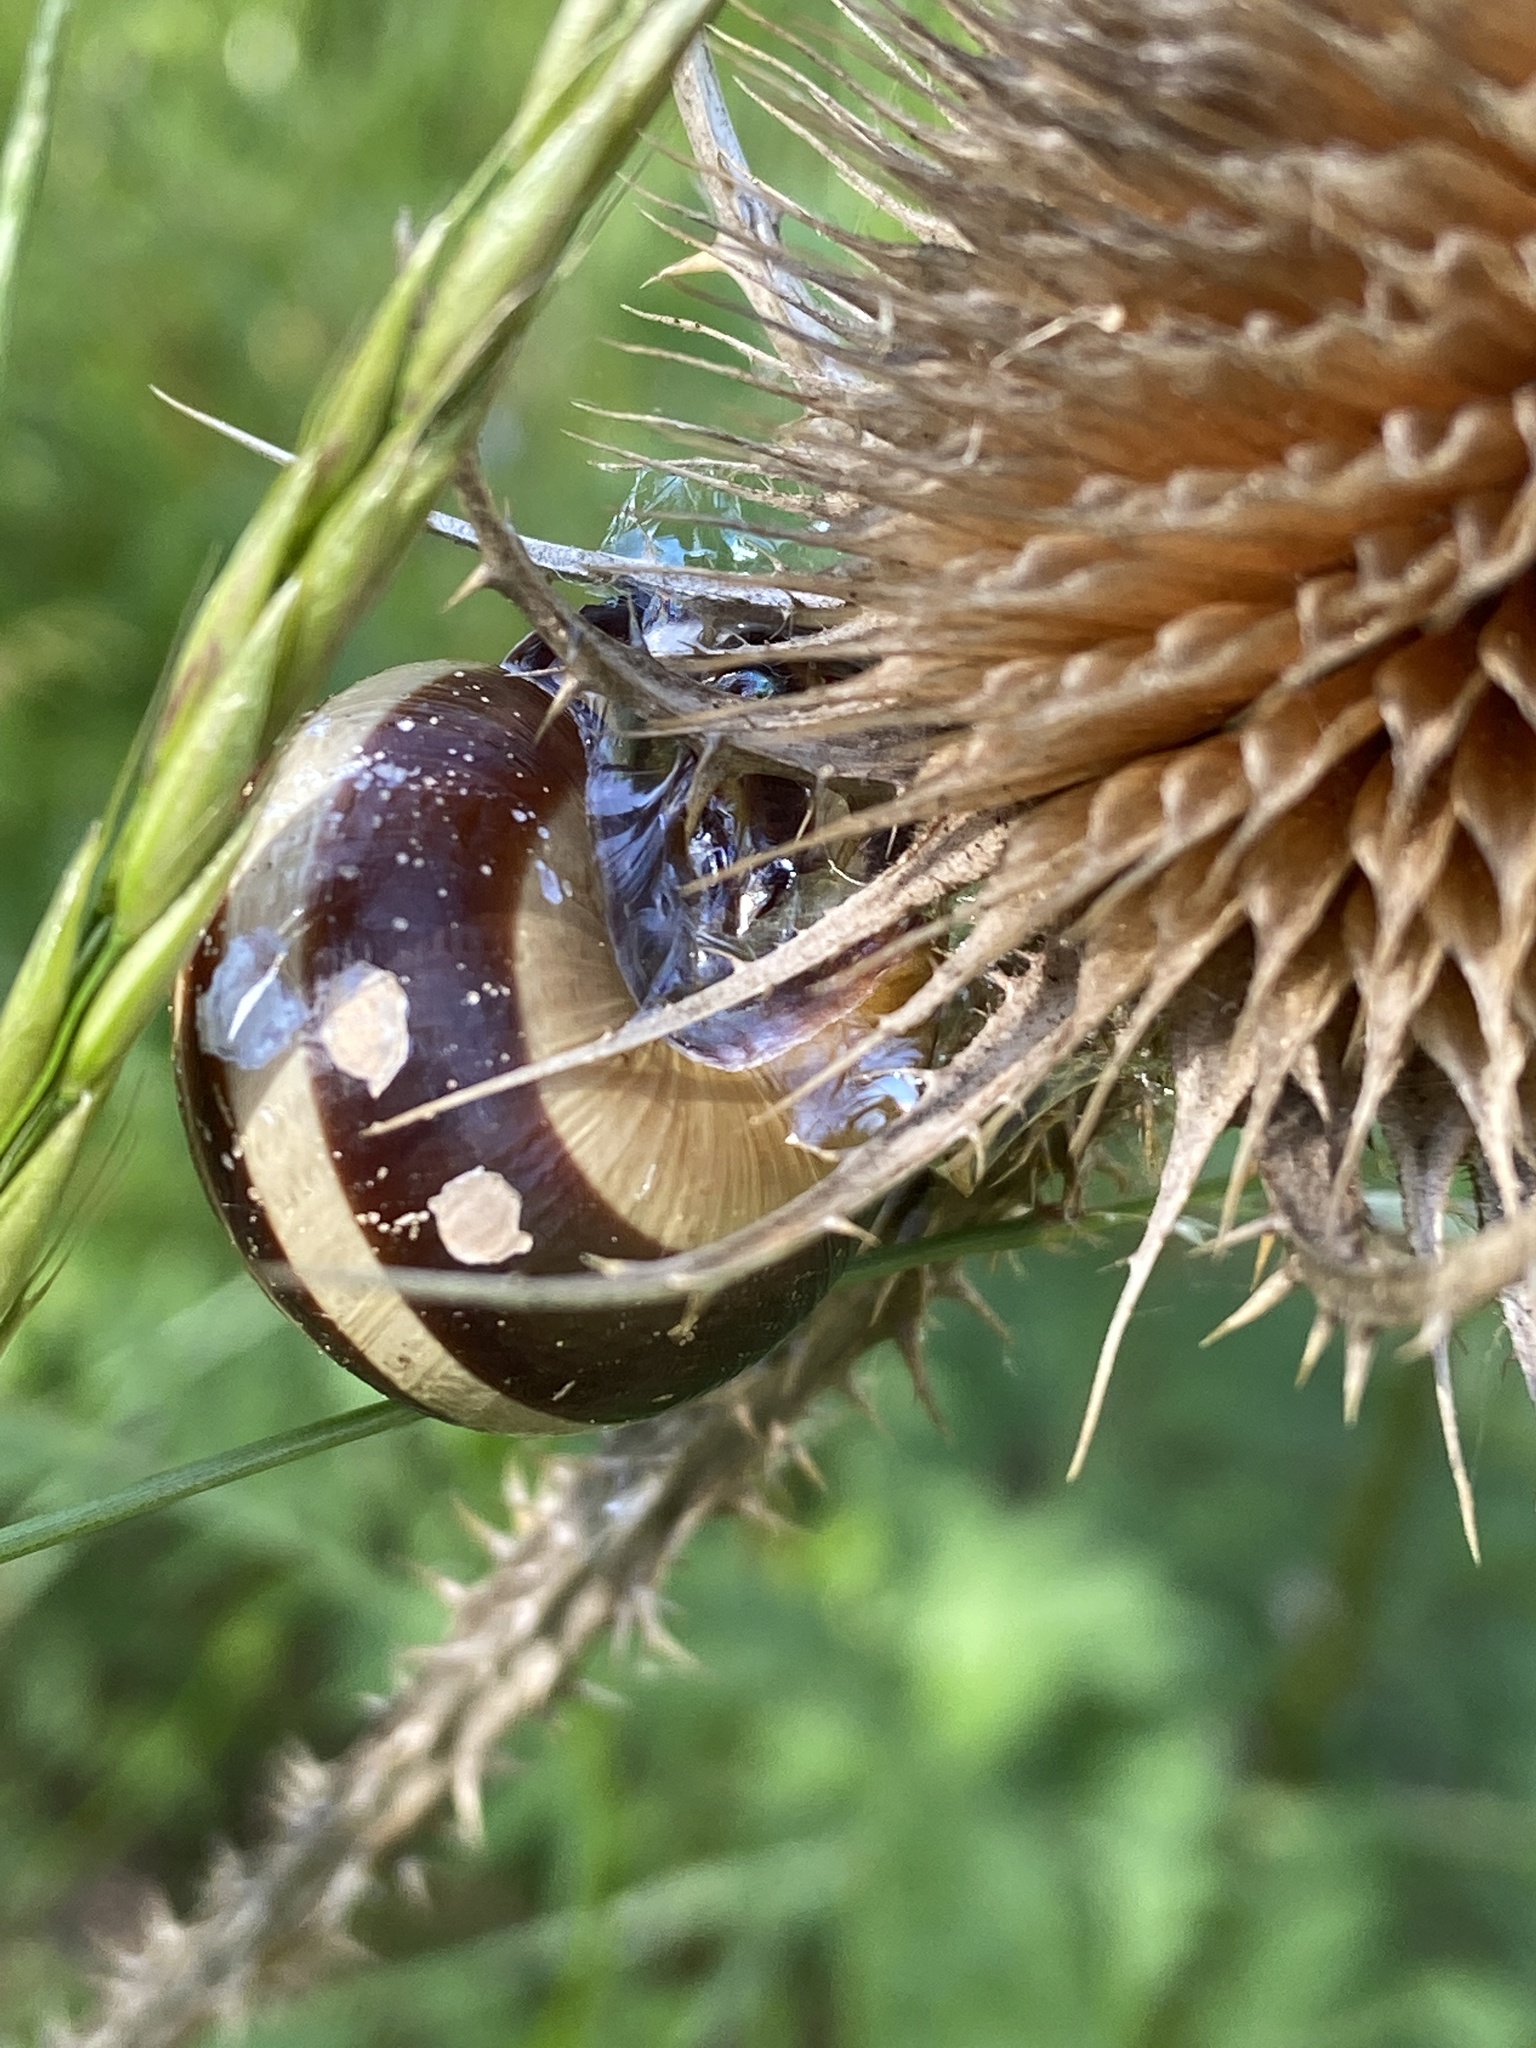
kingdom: Animalia
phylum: Mollusca
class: Gastropoda
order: Stylommatophora
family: Helicidae
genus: Cepaea
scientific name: Cepaea nemoralis
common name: Grovesnail
